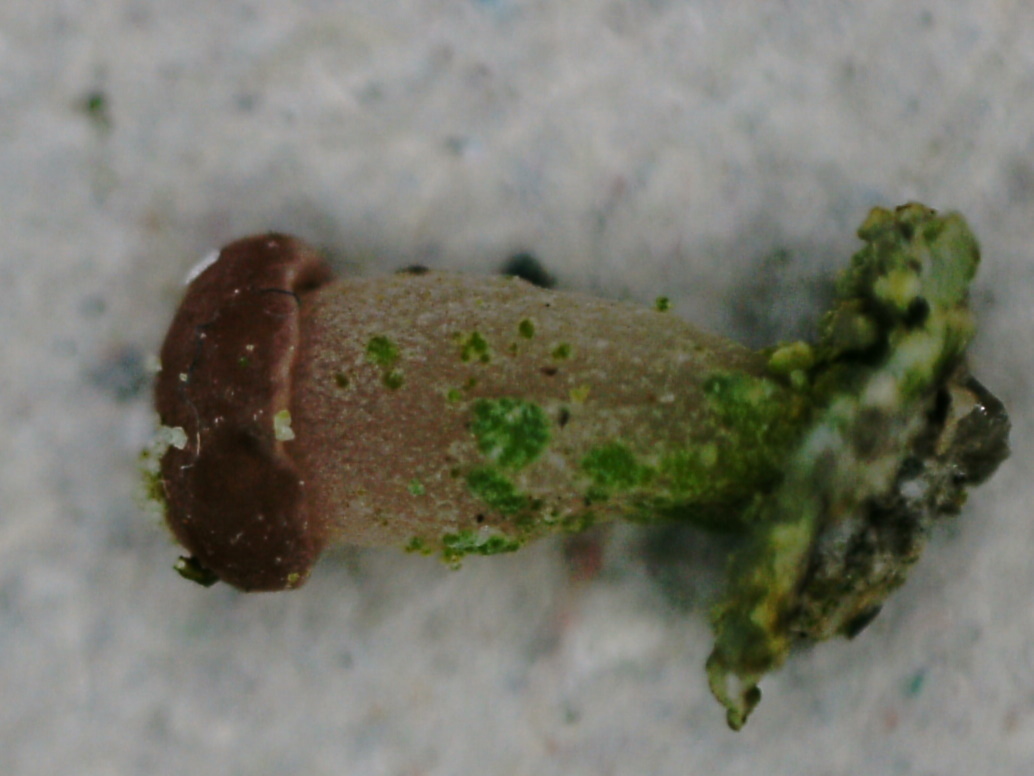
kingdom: Fungi
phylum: Ascomycota
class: Lecanoromycetes
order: Baeomycetales
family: Baeomycetaceae
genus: Baeomyces
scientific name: Baeomyces carneus
